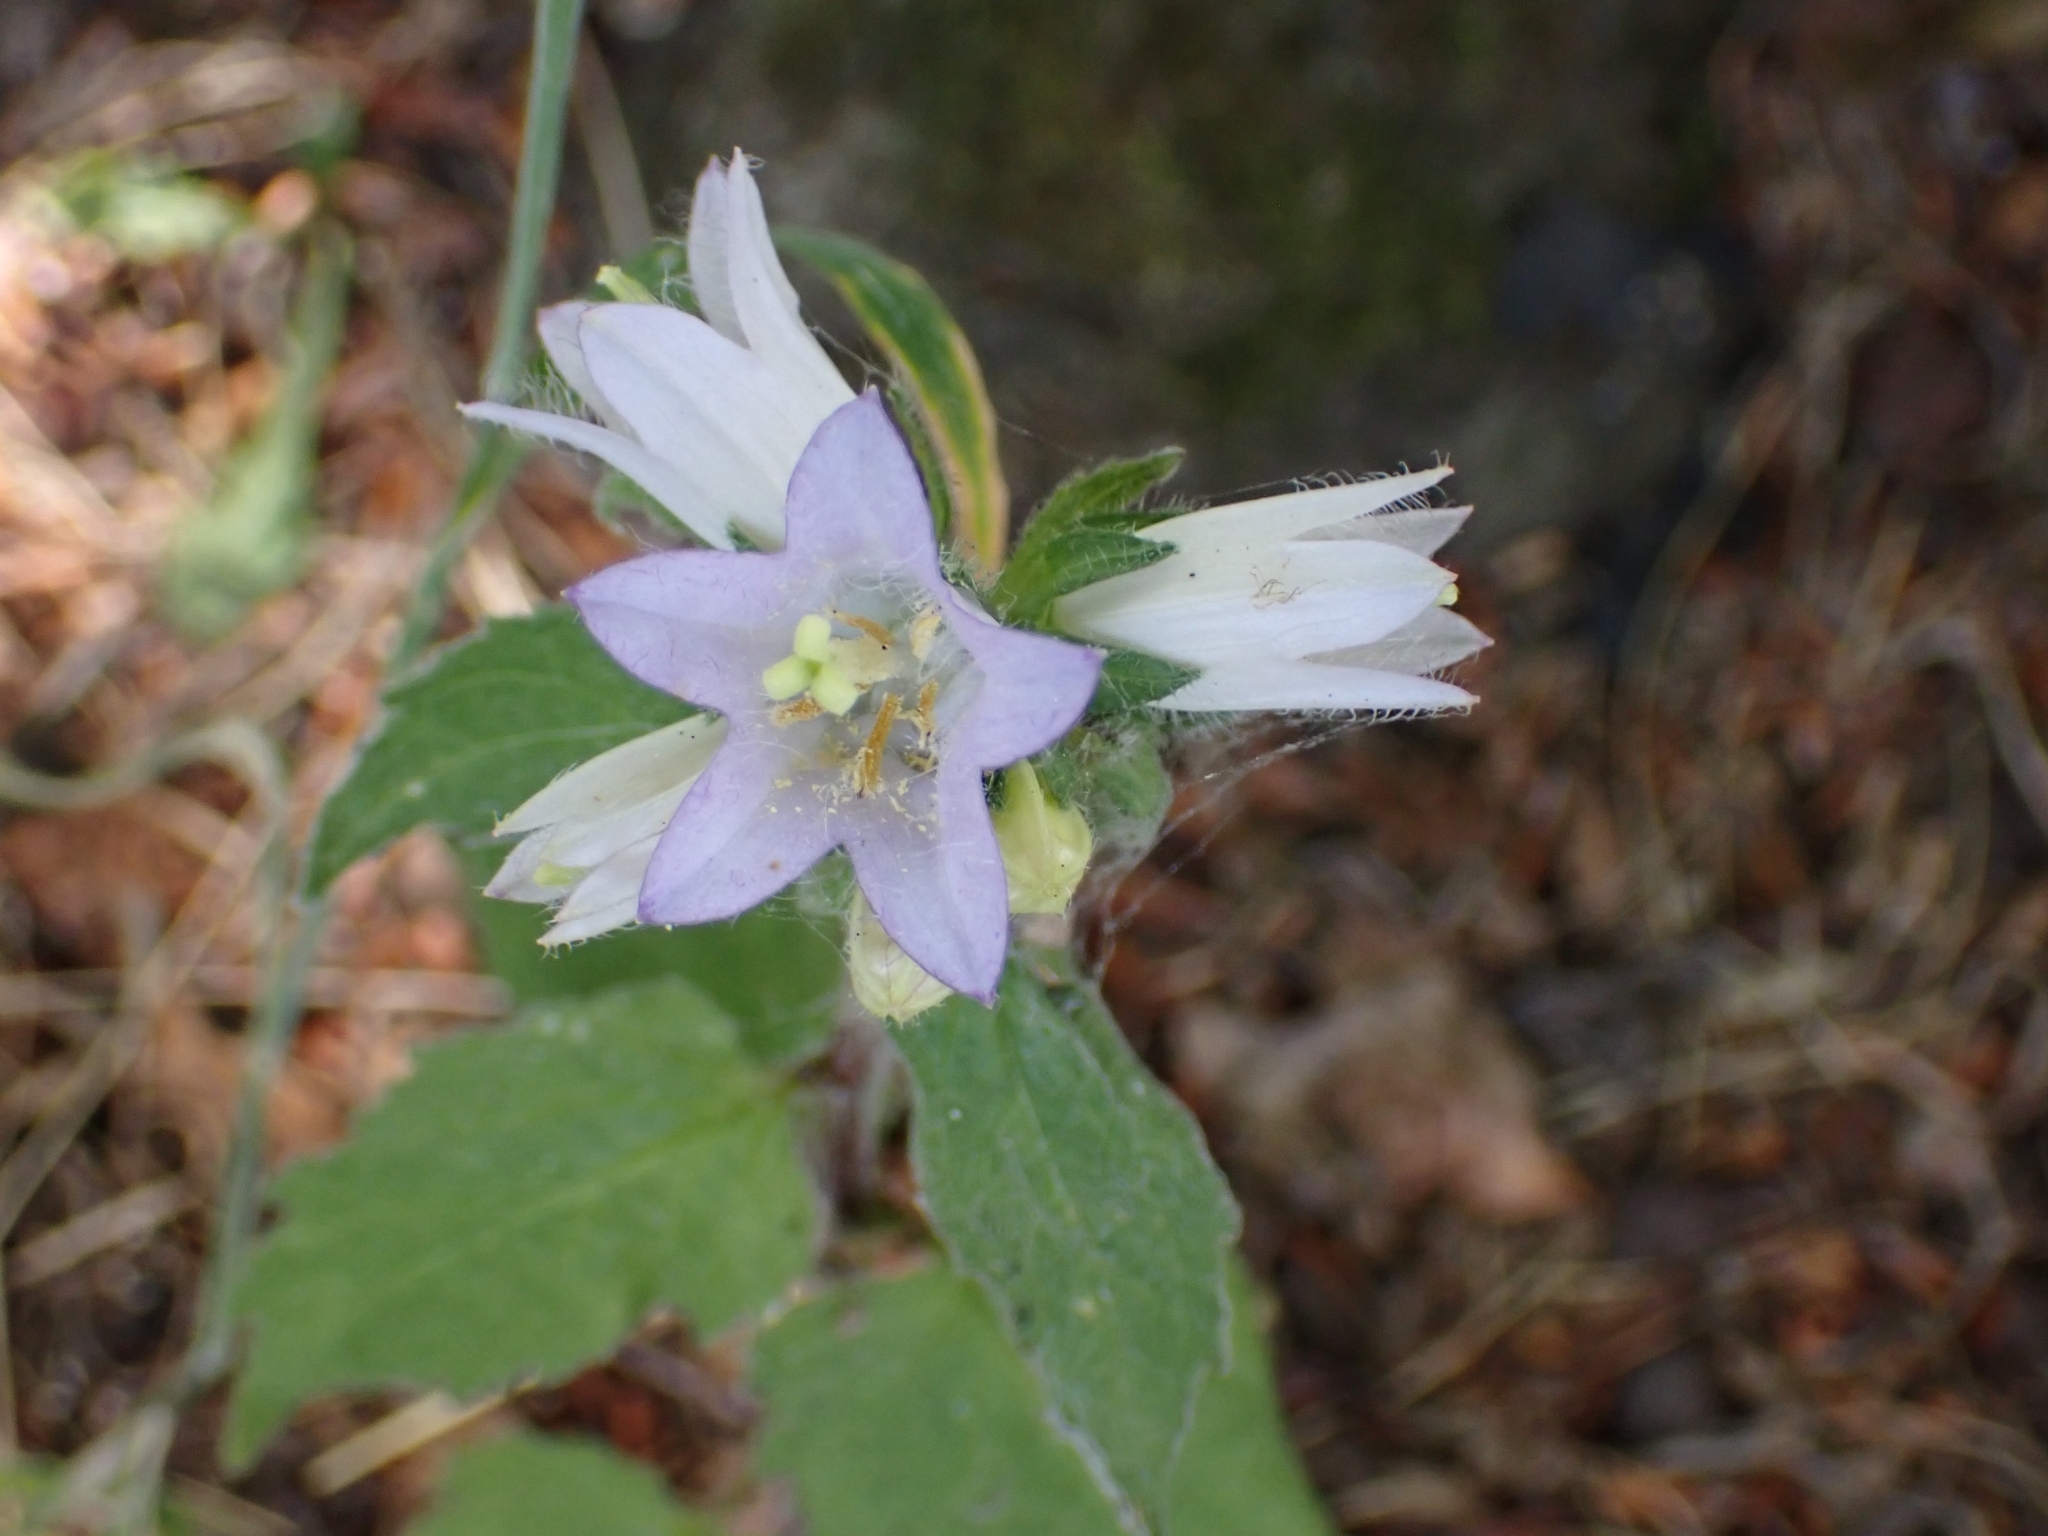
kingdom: Plantae
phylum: Tracheophyta
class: Magnoliopsida
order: Asterales
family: Campanulaceae
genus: Campanula
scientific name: Campanula trachelium
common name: Nettle-leaved bellflower
